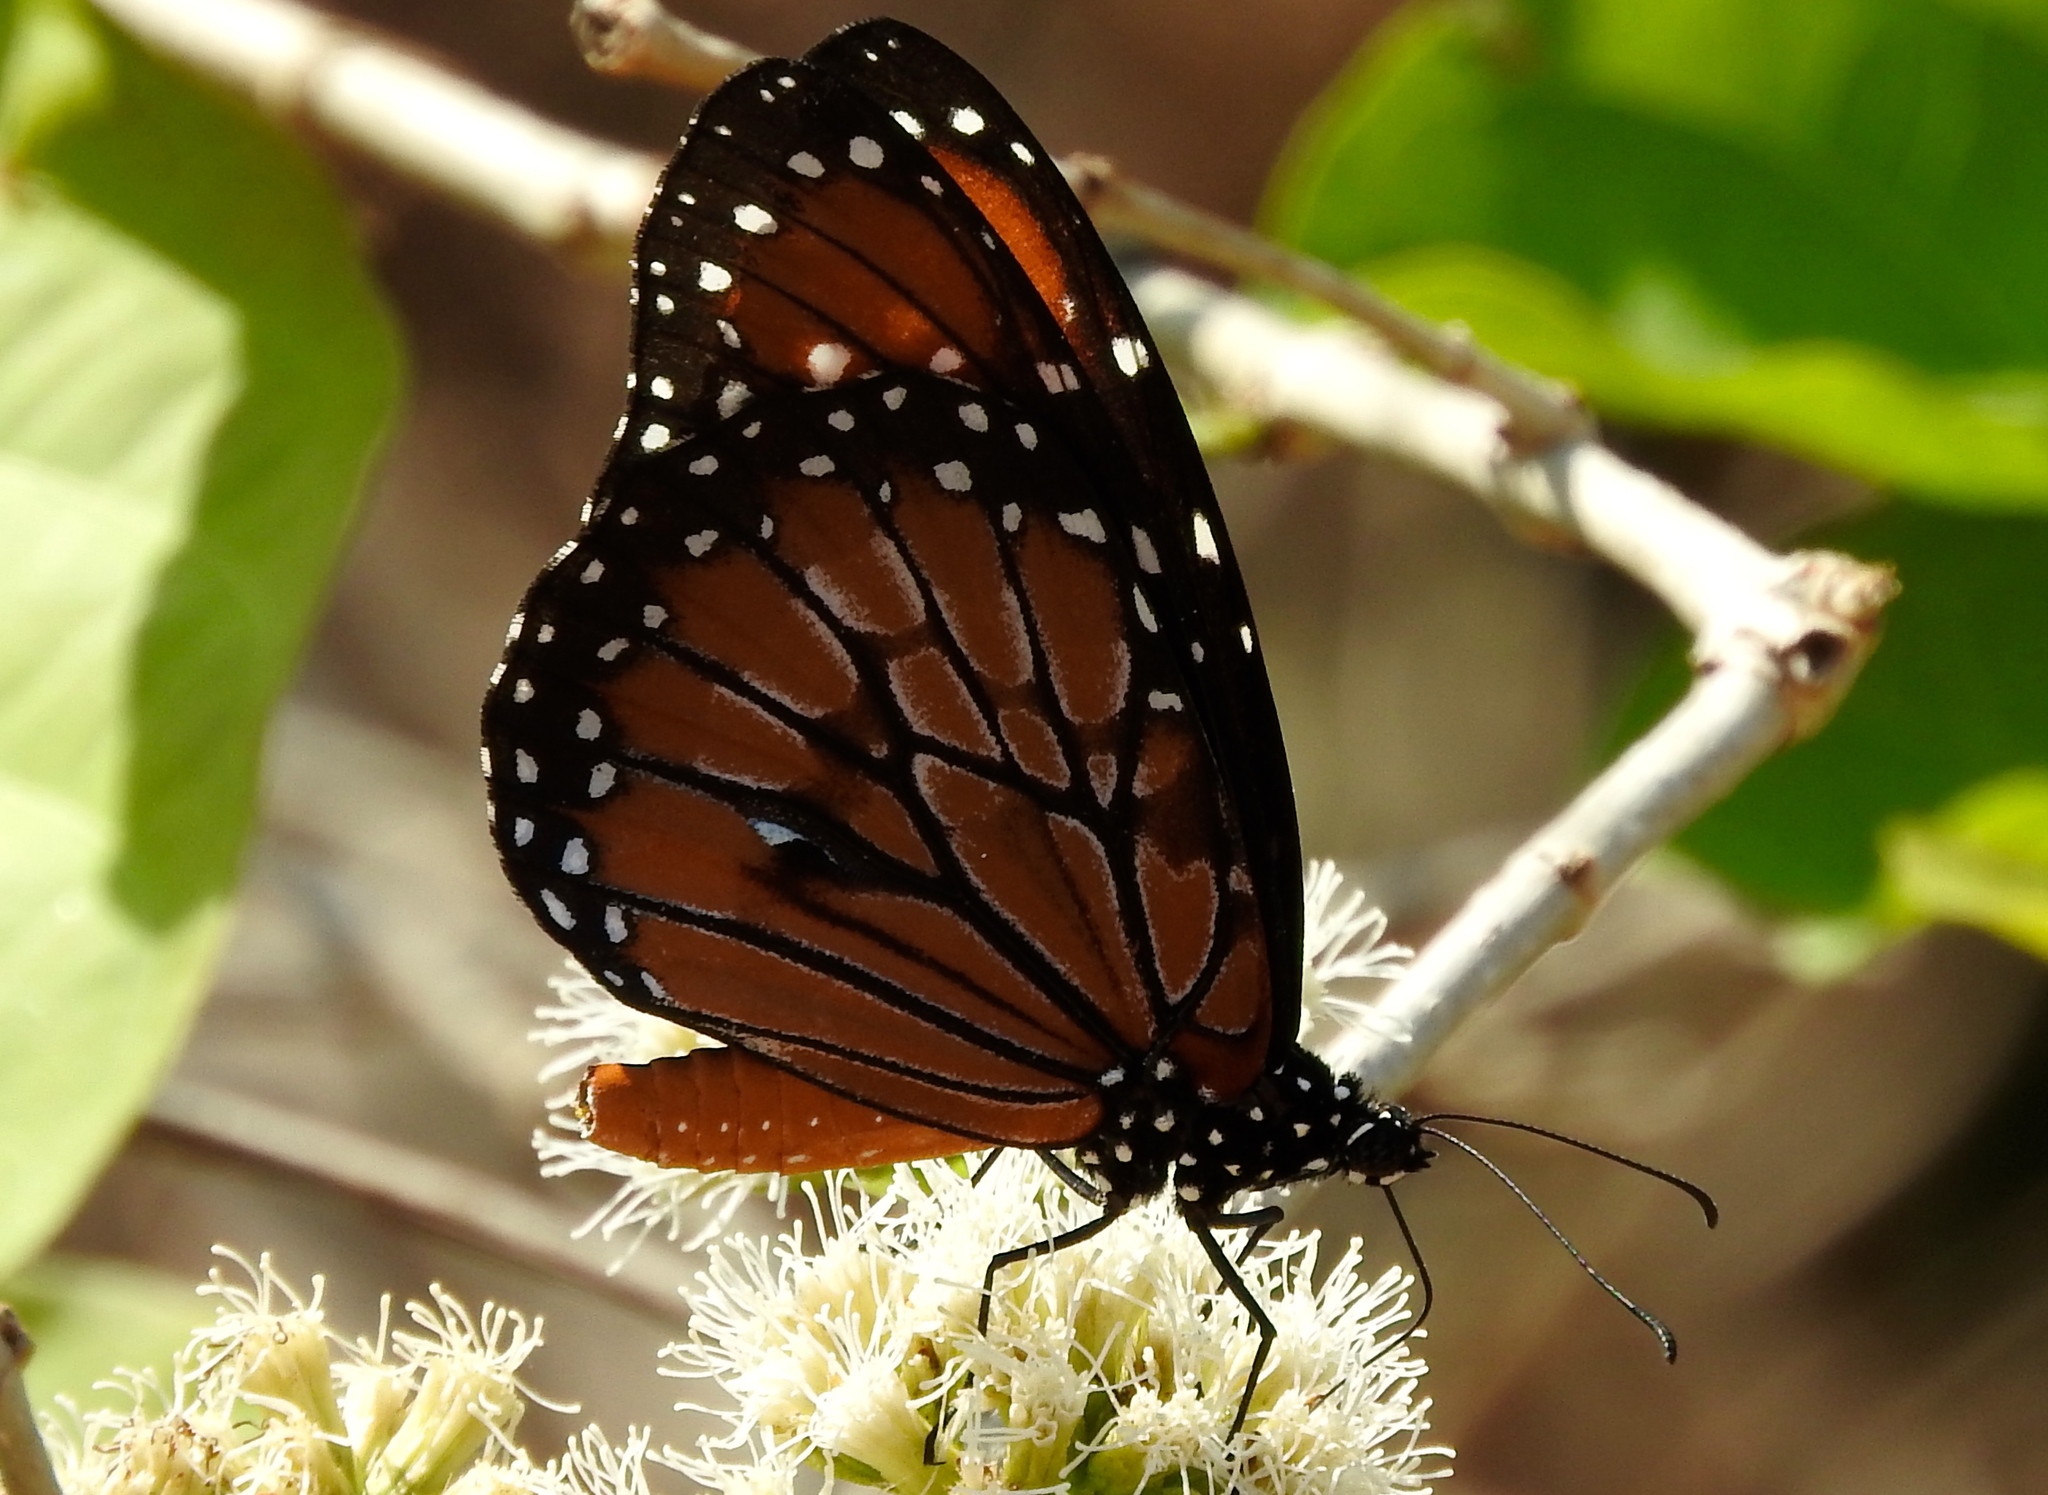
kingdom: Animalia
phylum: Arthropoda
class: Insecta
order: Lepidoptera
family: Nymphalidae
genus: Danaus
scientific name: Danaus eresimus
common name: Soldier
